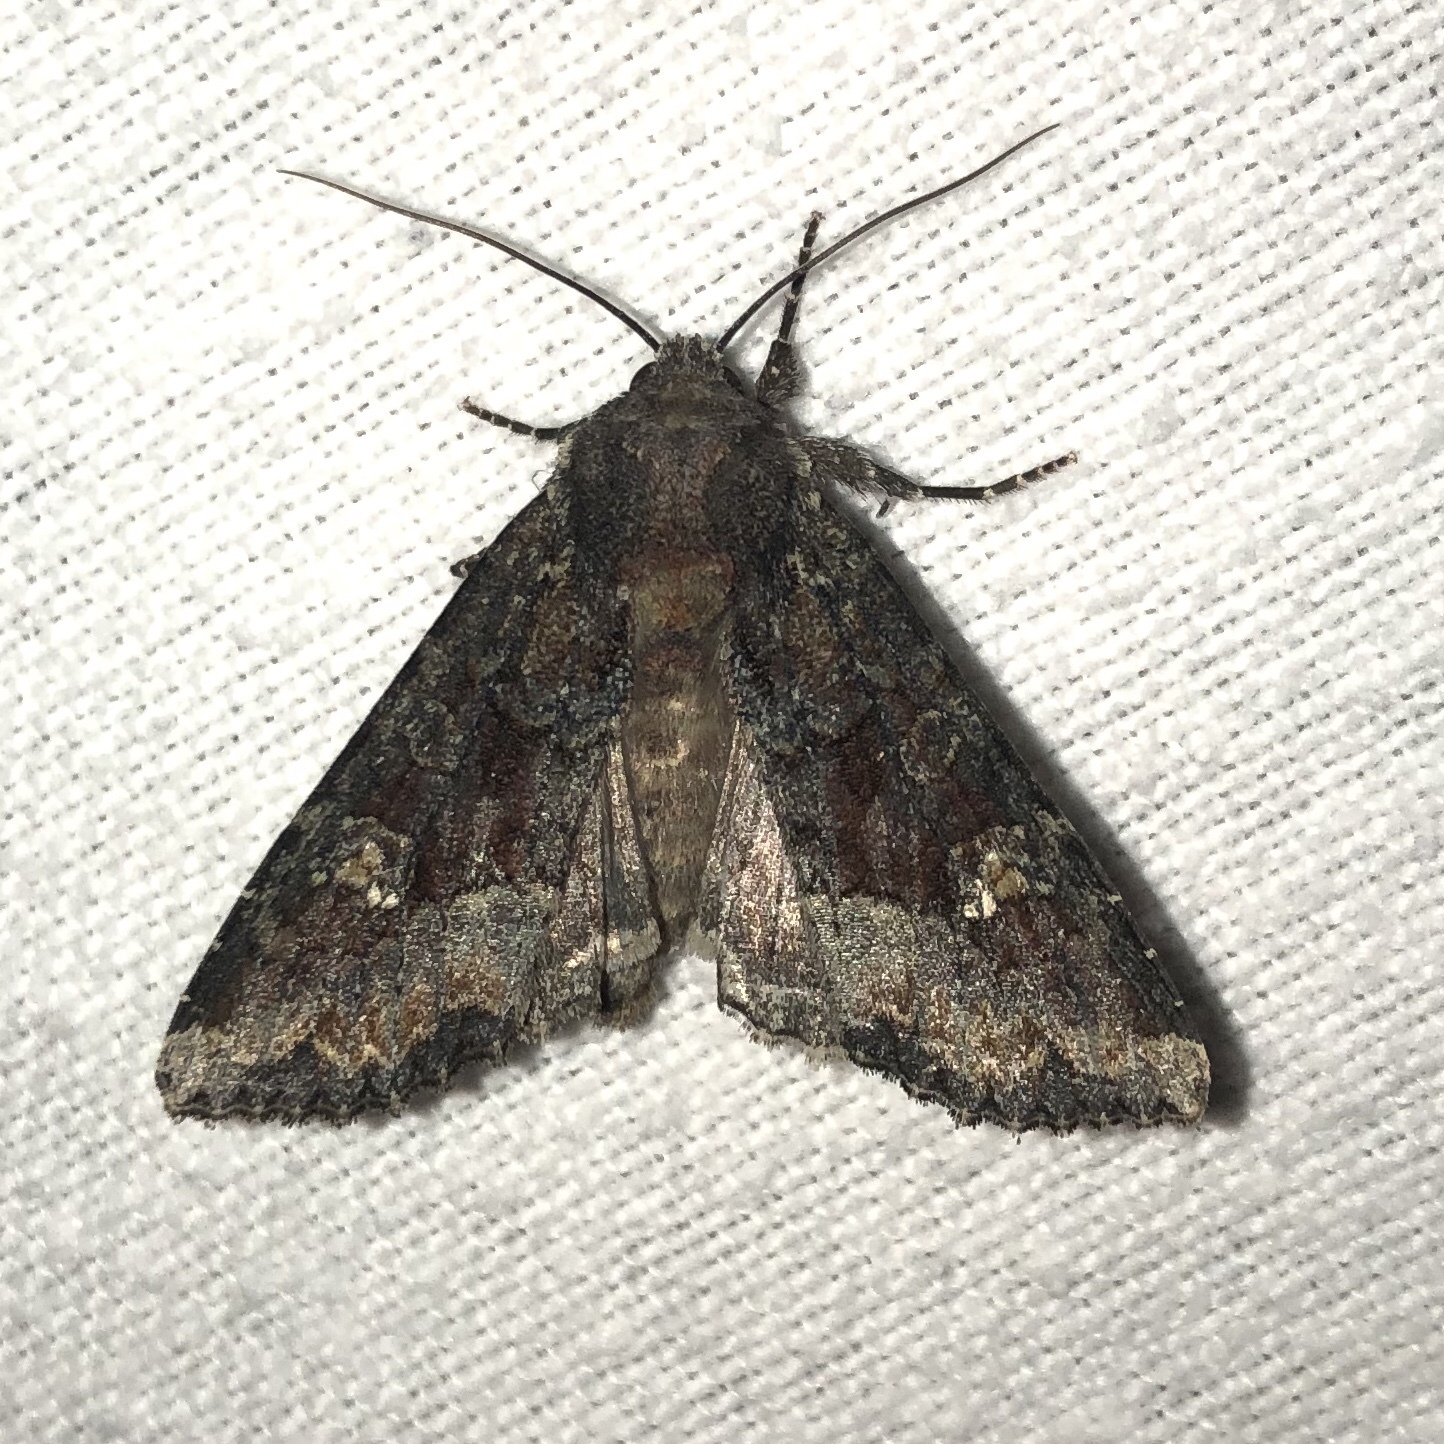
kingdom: Animalia
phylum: Arthropoda
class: Insecta
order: Lepidoptera
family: Noctuidae
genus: Apamea
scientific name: Apamea amputatrix
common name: Yellow-headed cutworm moth
